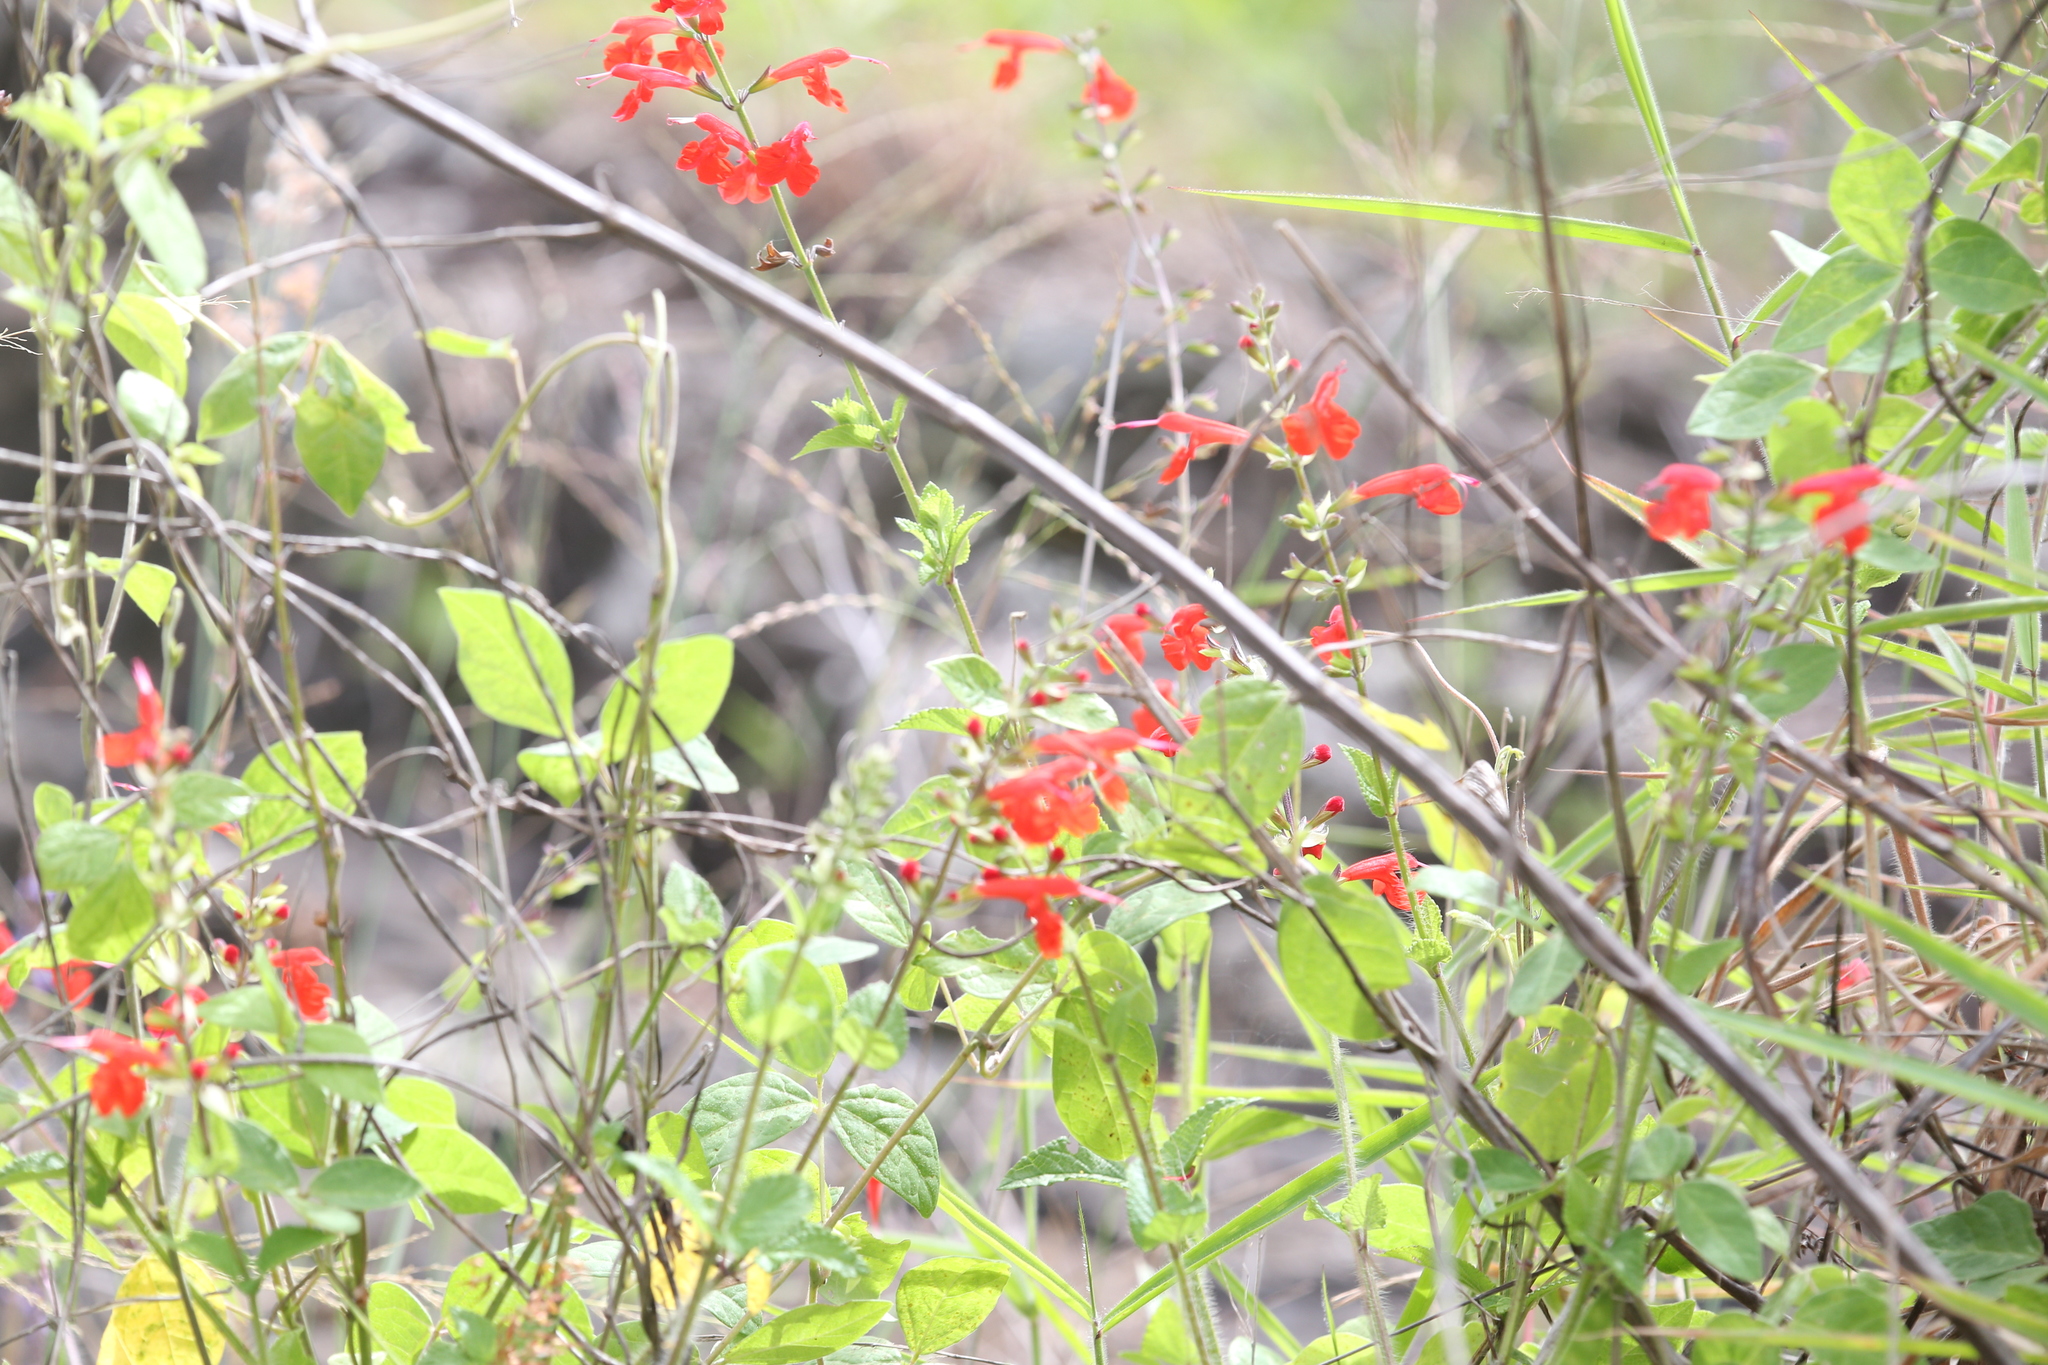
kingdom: Plantae
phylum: Tracheophyta
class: Magnoliopsida
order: Lamiales
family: Lamiaceae
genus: Salvia
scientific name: Salvia coccinea
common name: Blood sage
